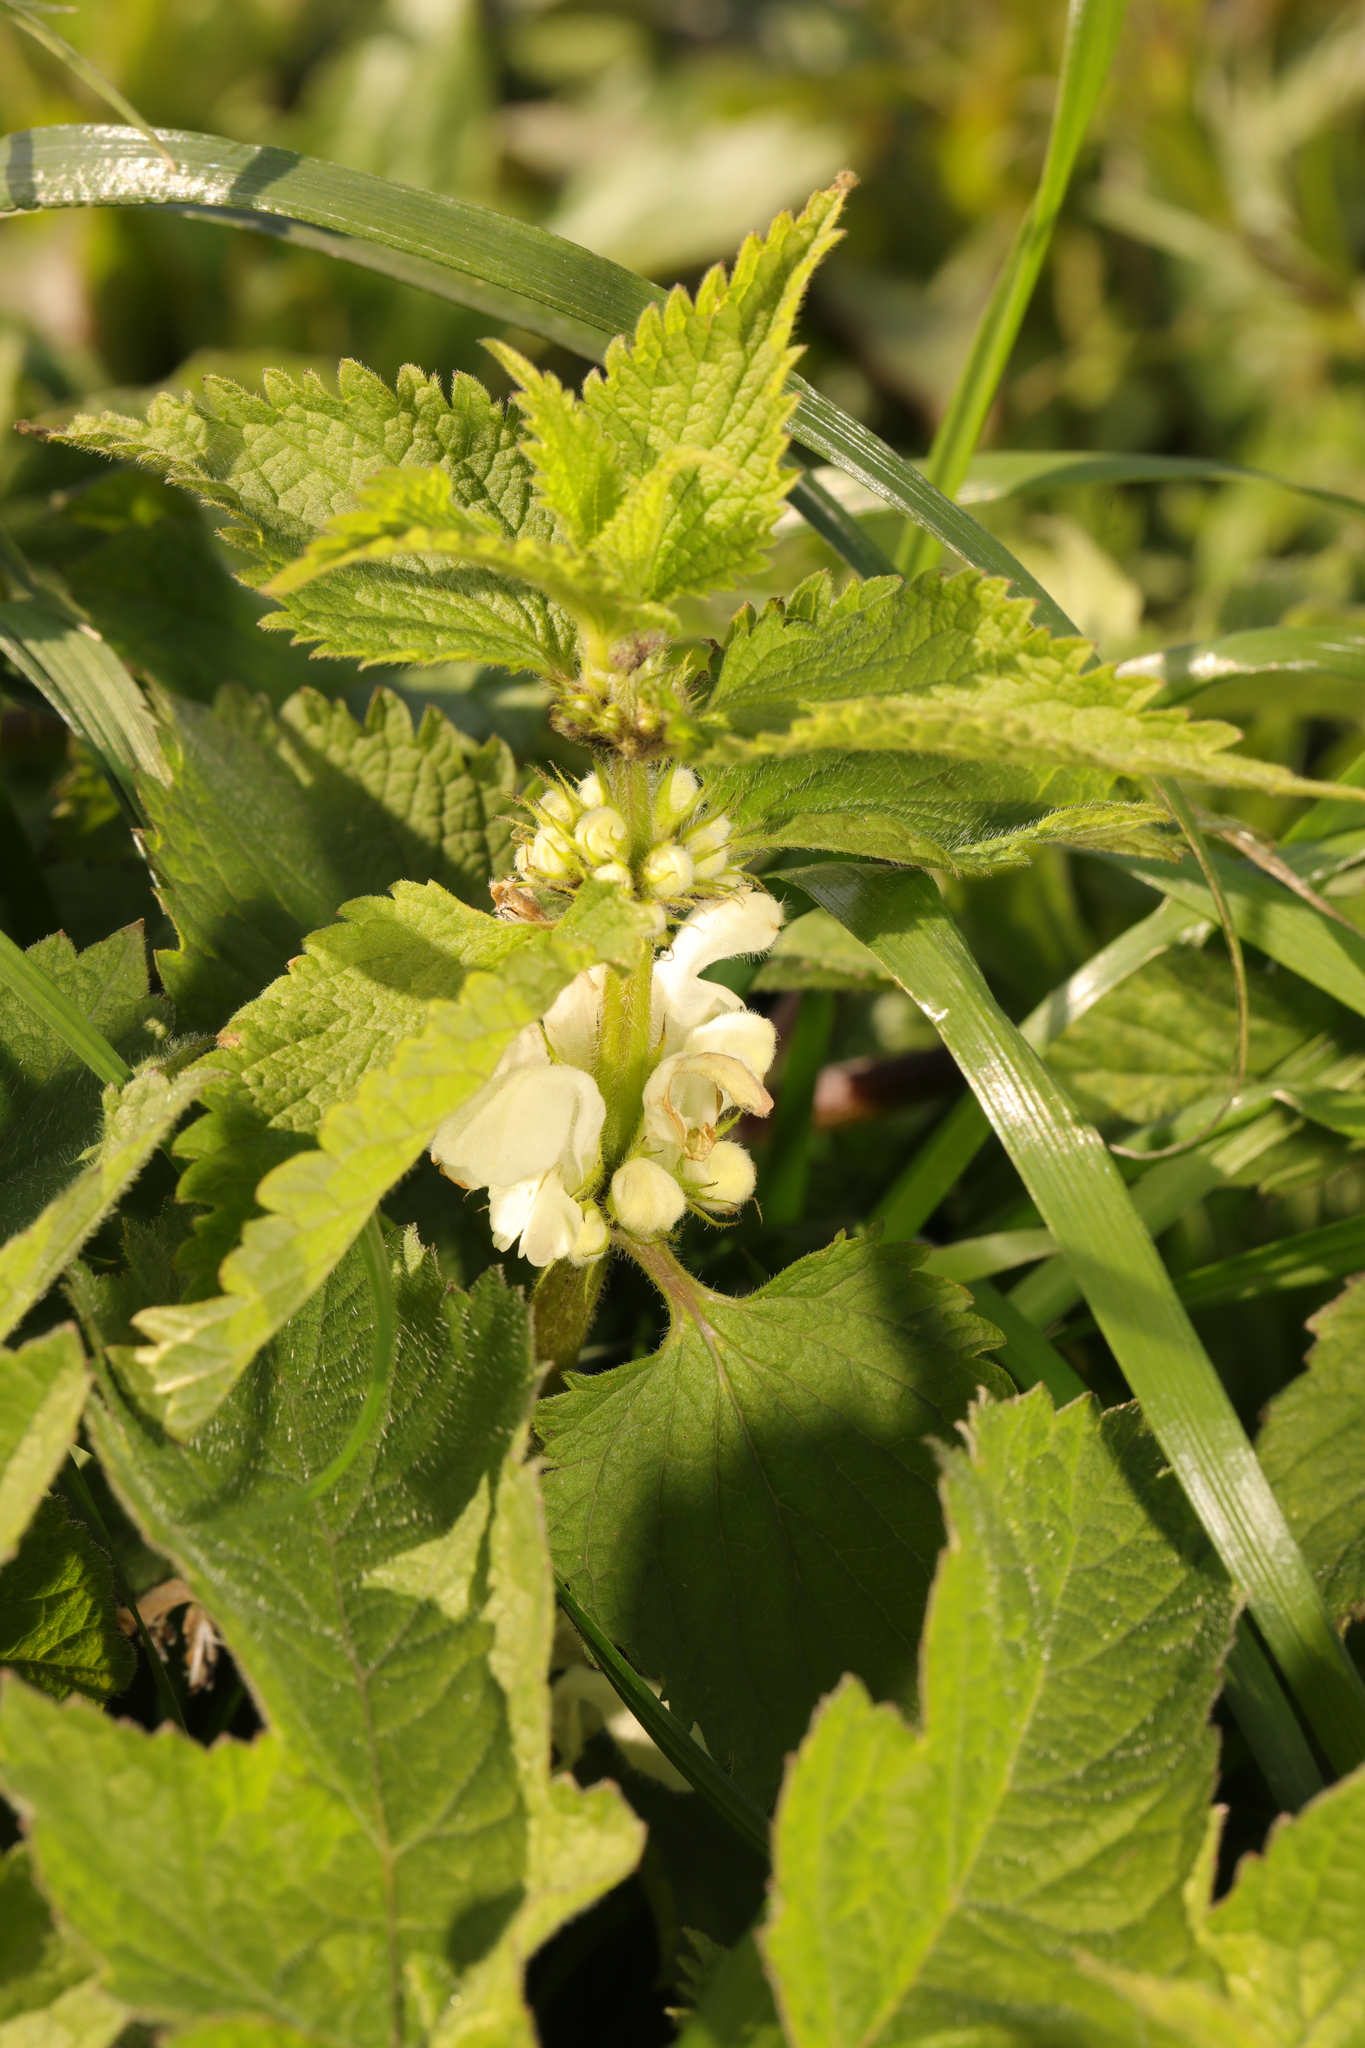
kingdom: Plantae
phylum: Tracheophyta
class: Magnoliopsida
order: Lamiales
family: Lamiaceae
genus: Lamium
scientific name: Lamium album
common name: White dead-nettle
